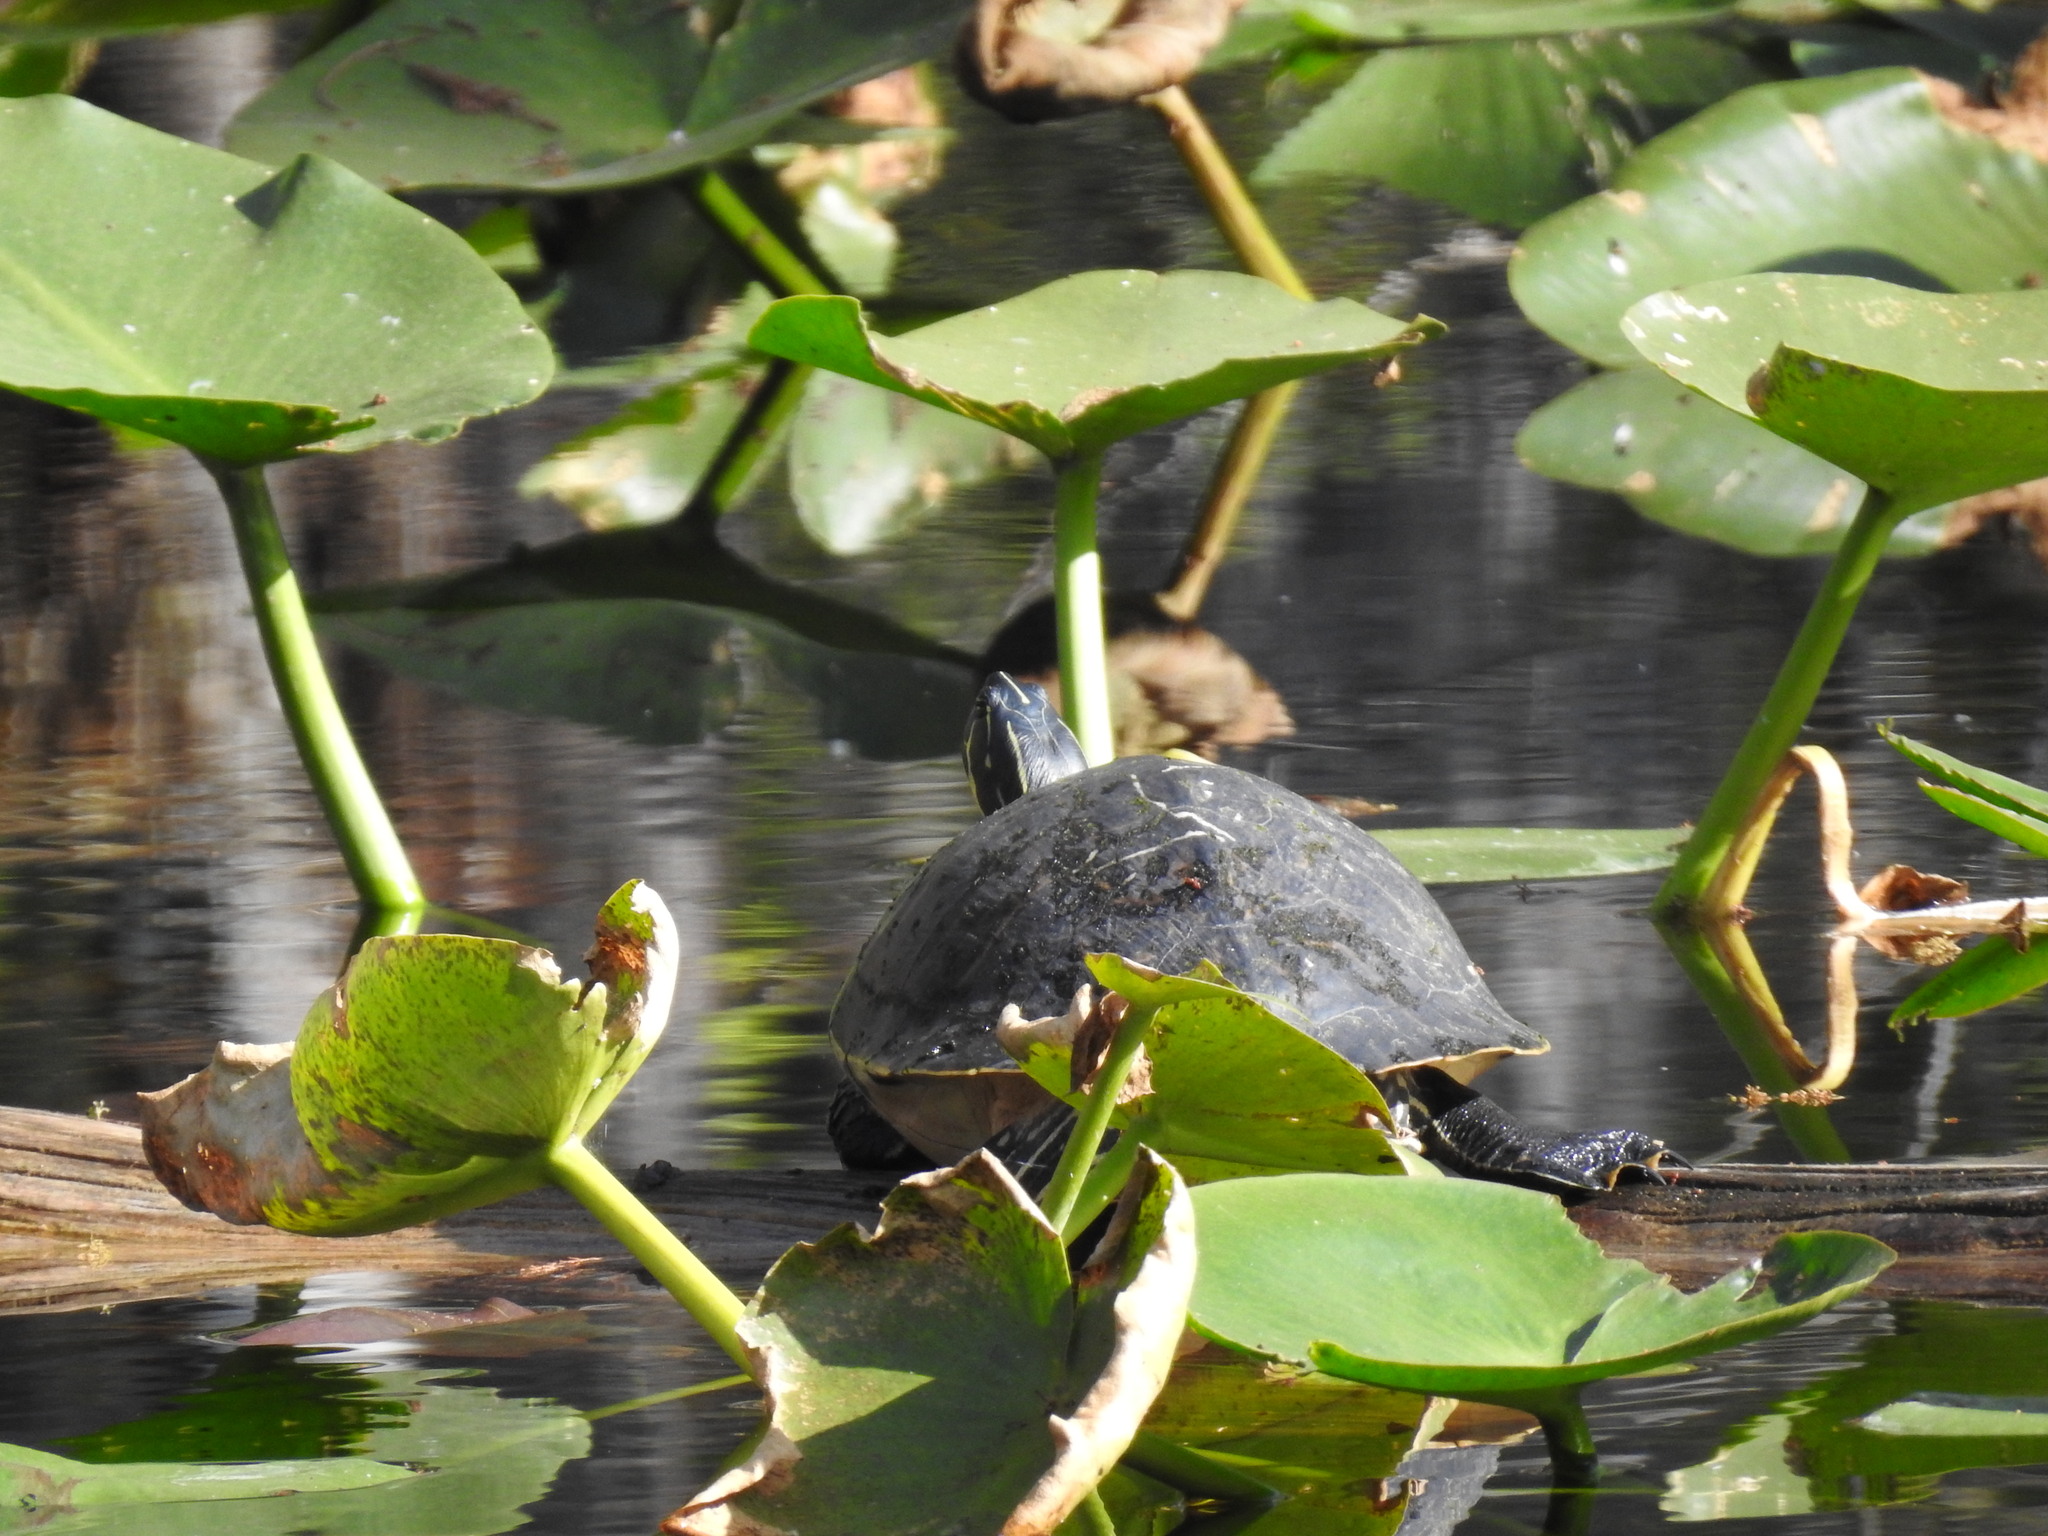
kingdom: Animalia
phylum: Chordata
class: Testudines
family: Emydidae
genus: Pseudemys
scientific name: Pseudemys peninsularis
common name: Peninsula cooter
